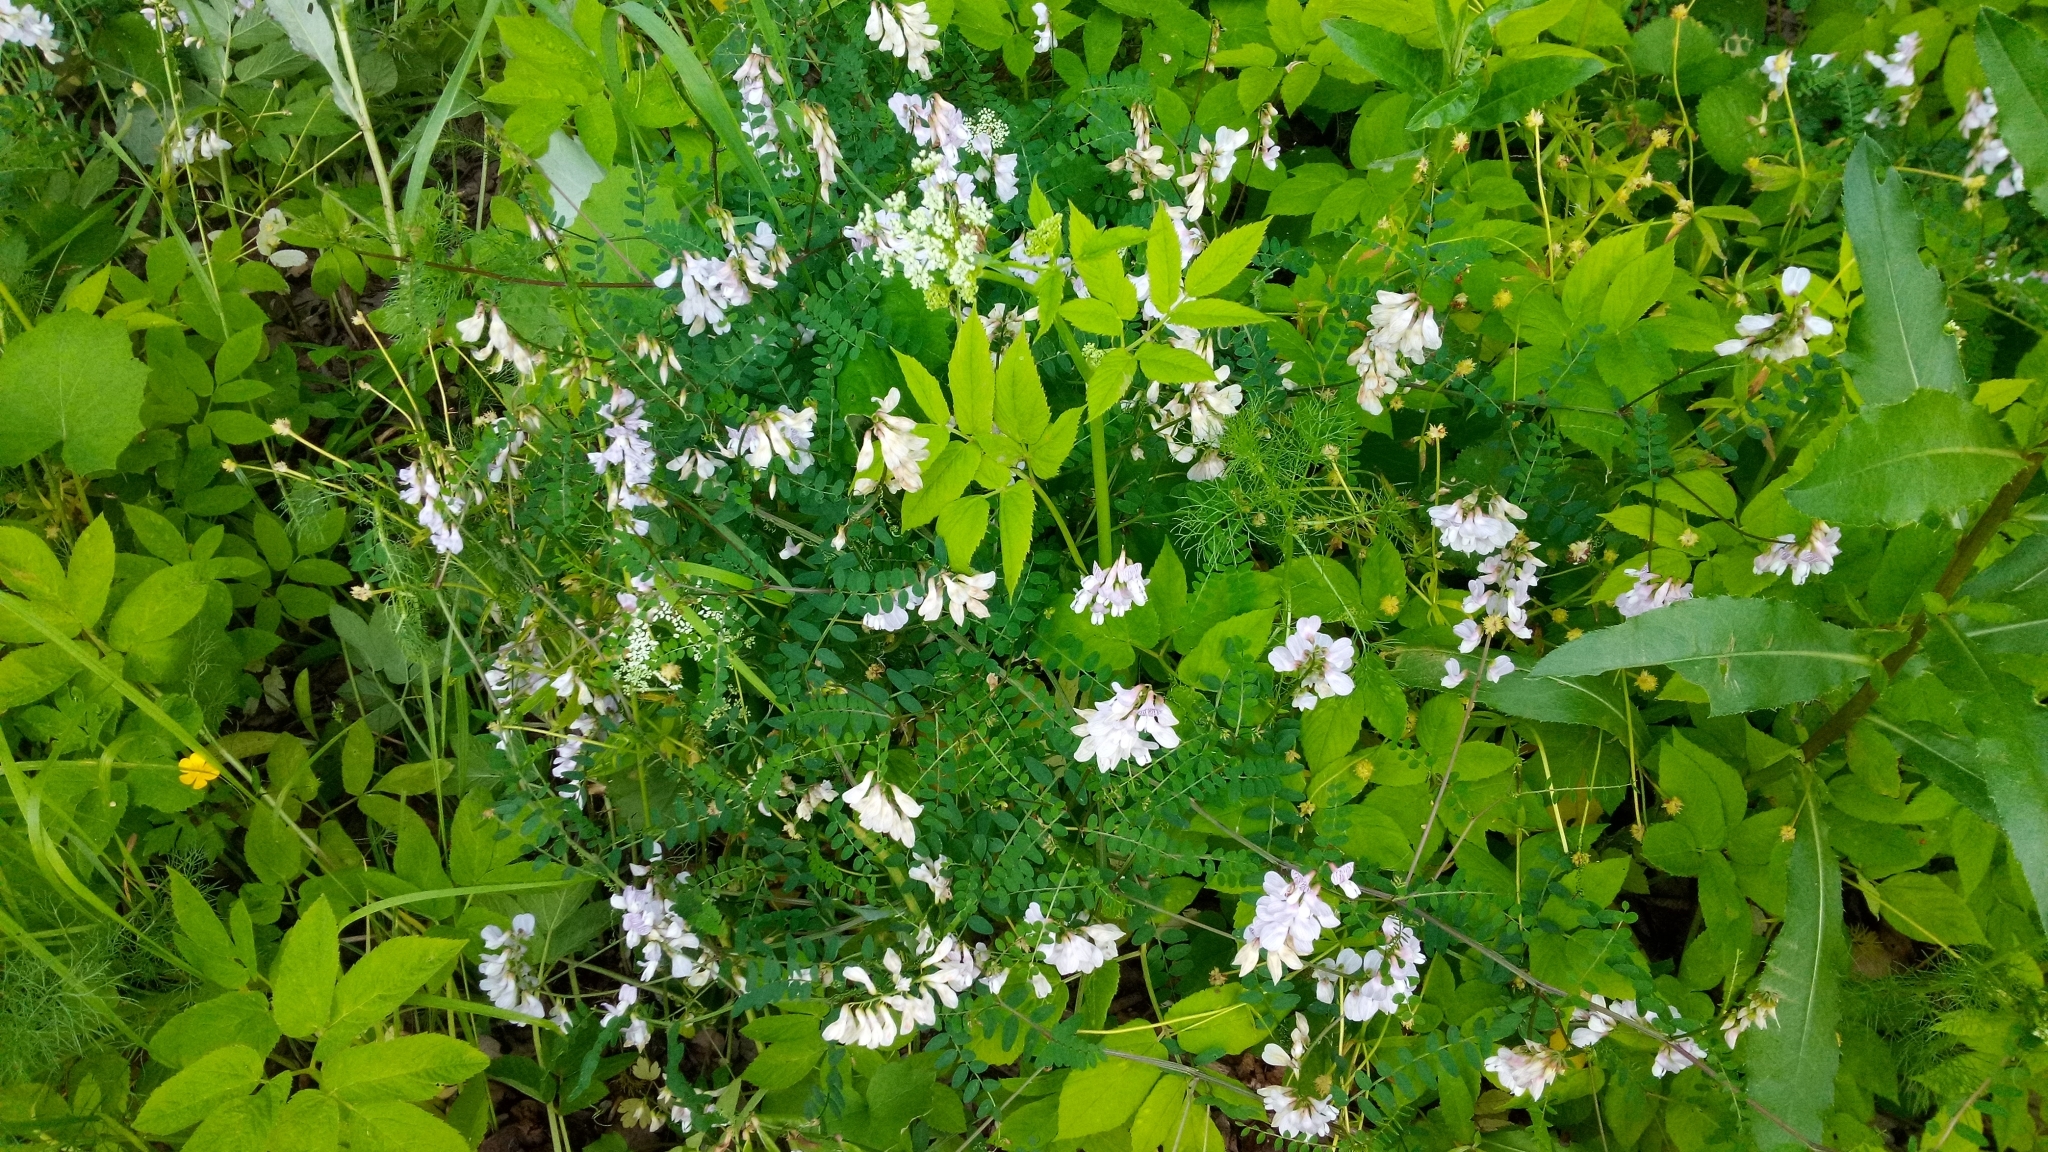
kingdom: Plantae
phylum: Tracheophyta
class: Magnoliopsida
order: Fabales
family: Fabaceae
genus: Vicia
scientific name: Vicia sylvatica
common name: Wood vetch
